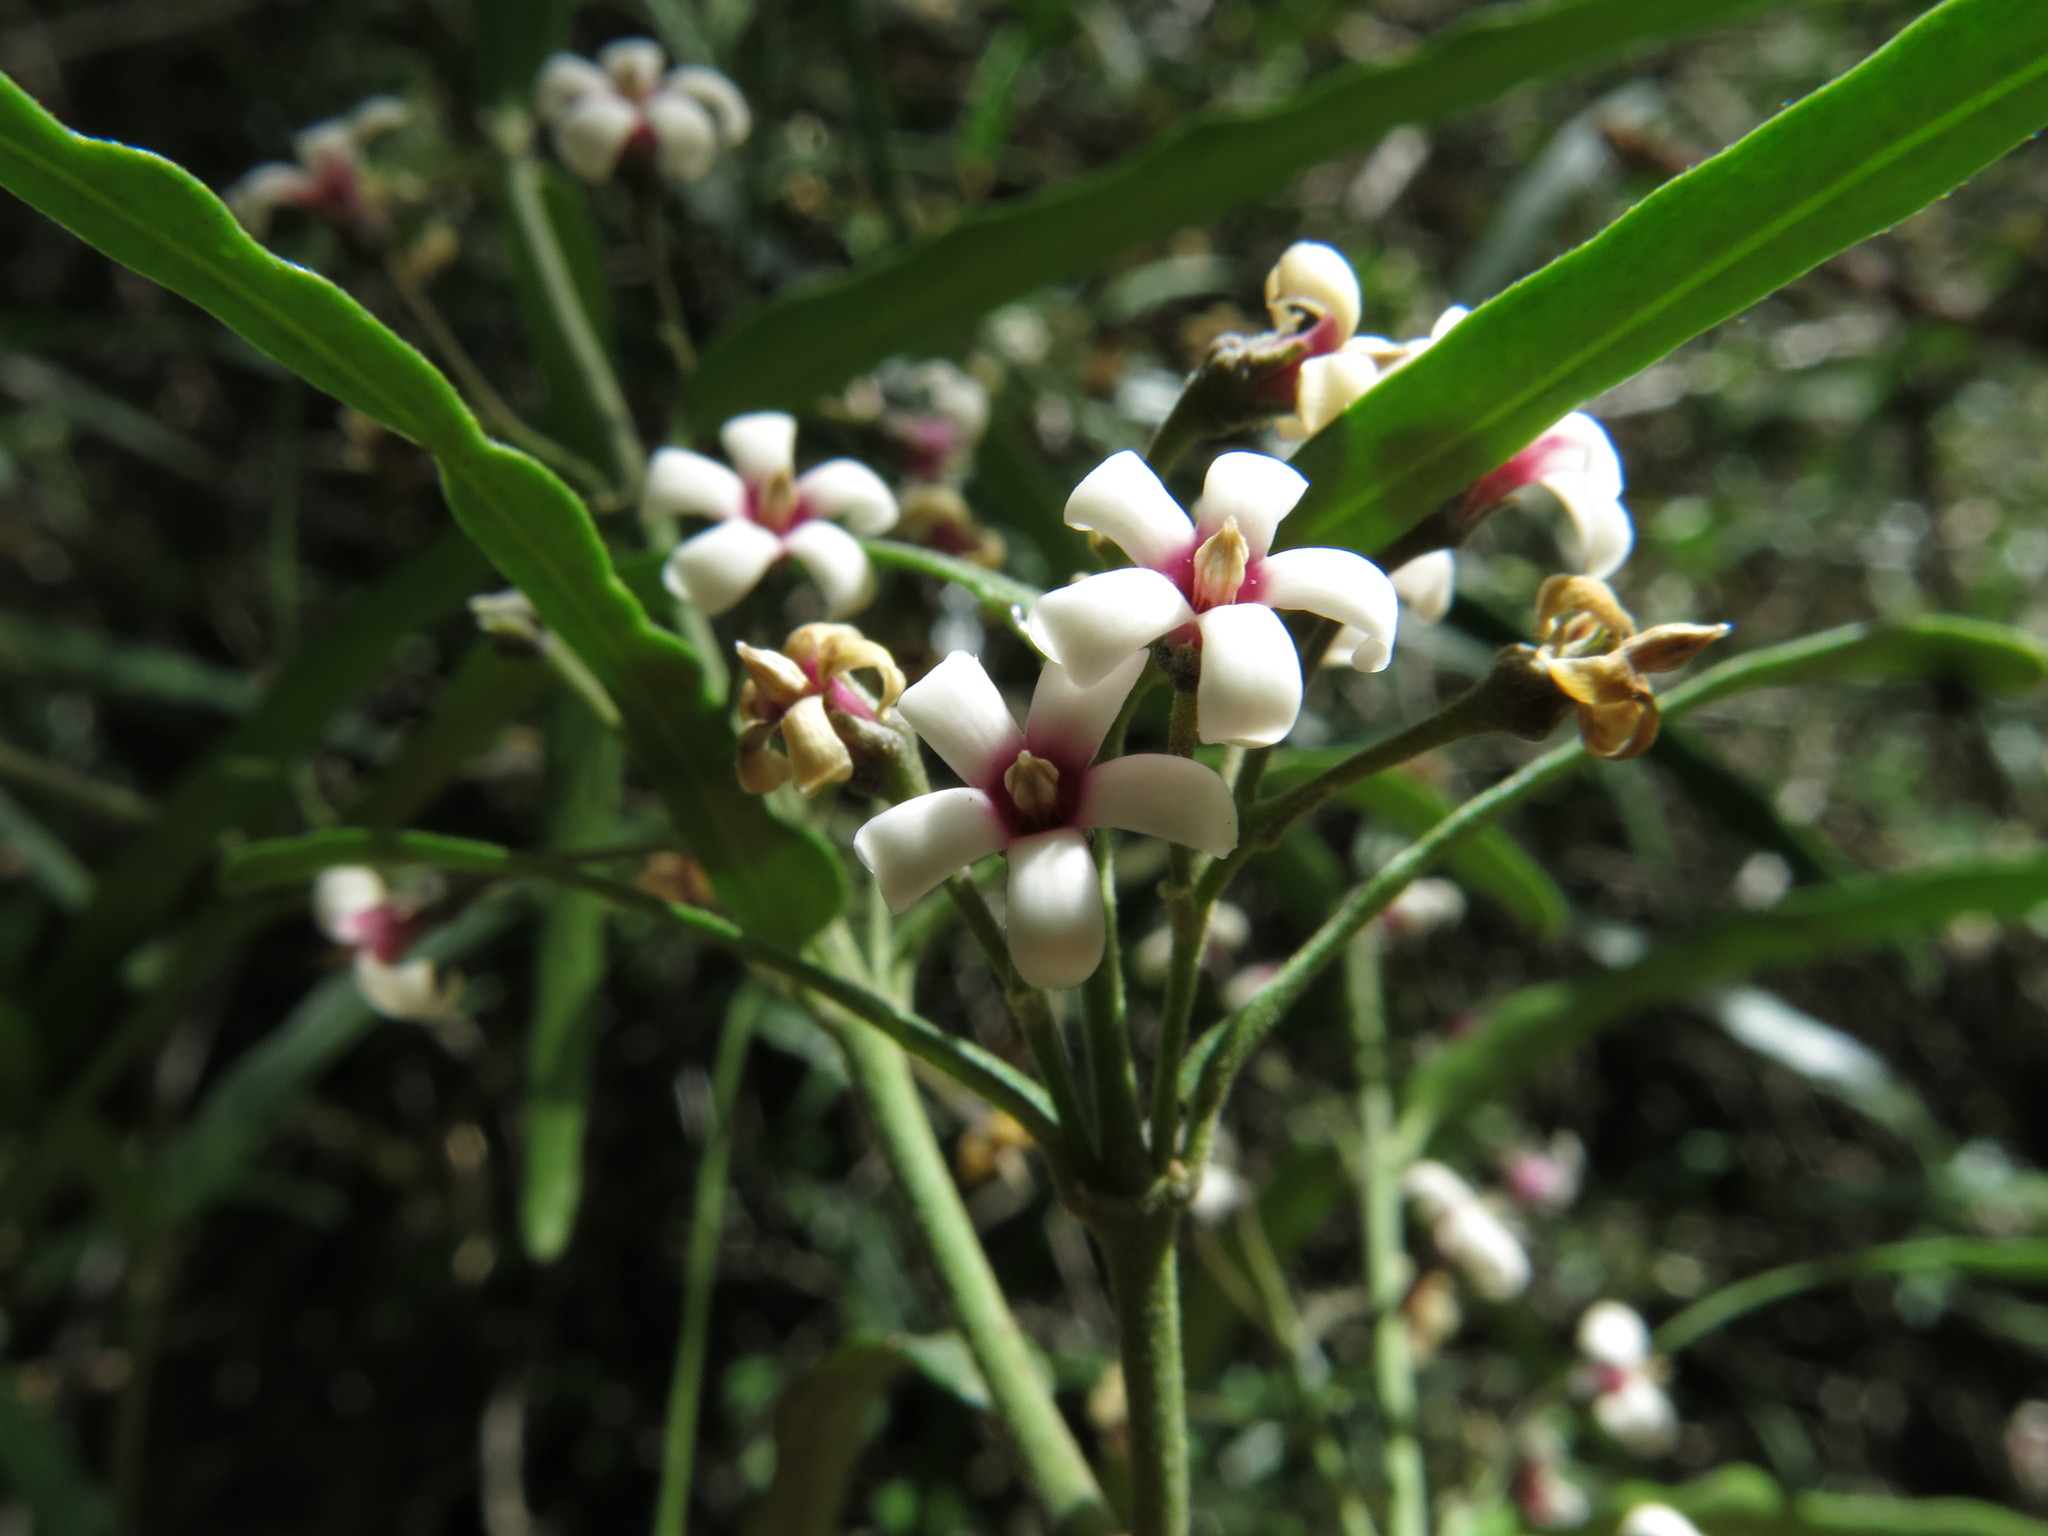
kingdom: Plantae
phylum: Tracheophyta
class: Magnoliopsida
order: Gentianales
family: Apocynaceae
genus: Parsonsia
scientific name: Parsonsia capsularis
